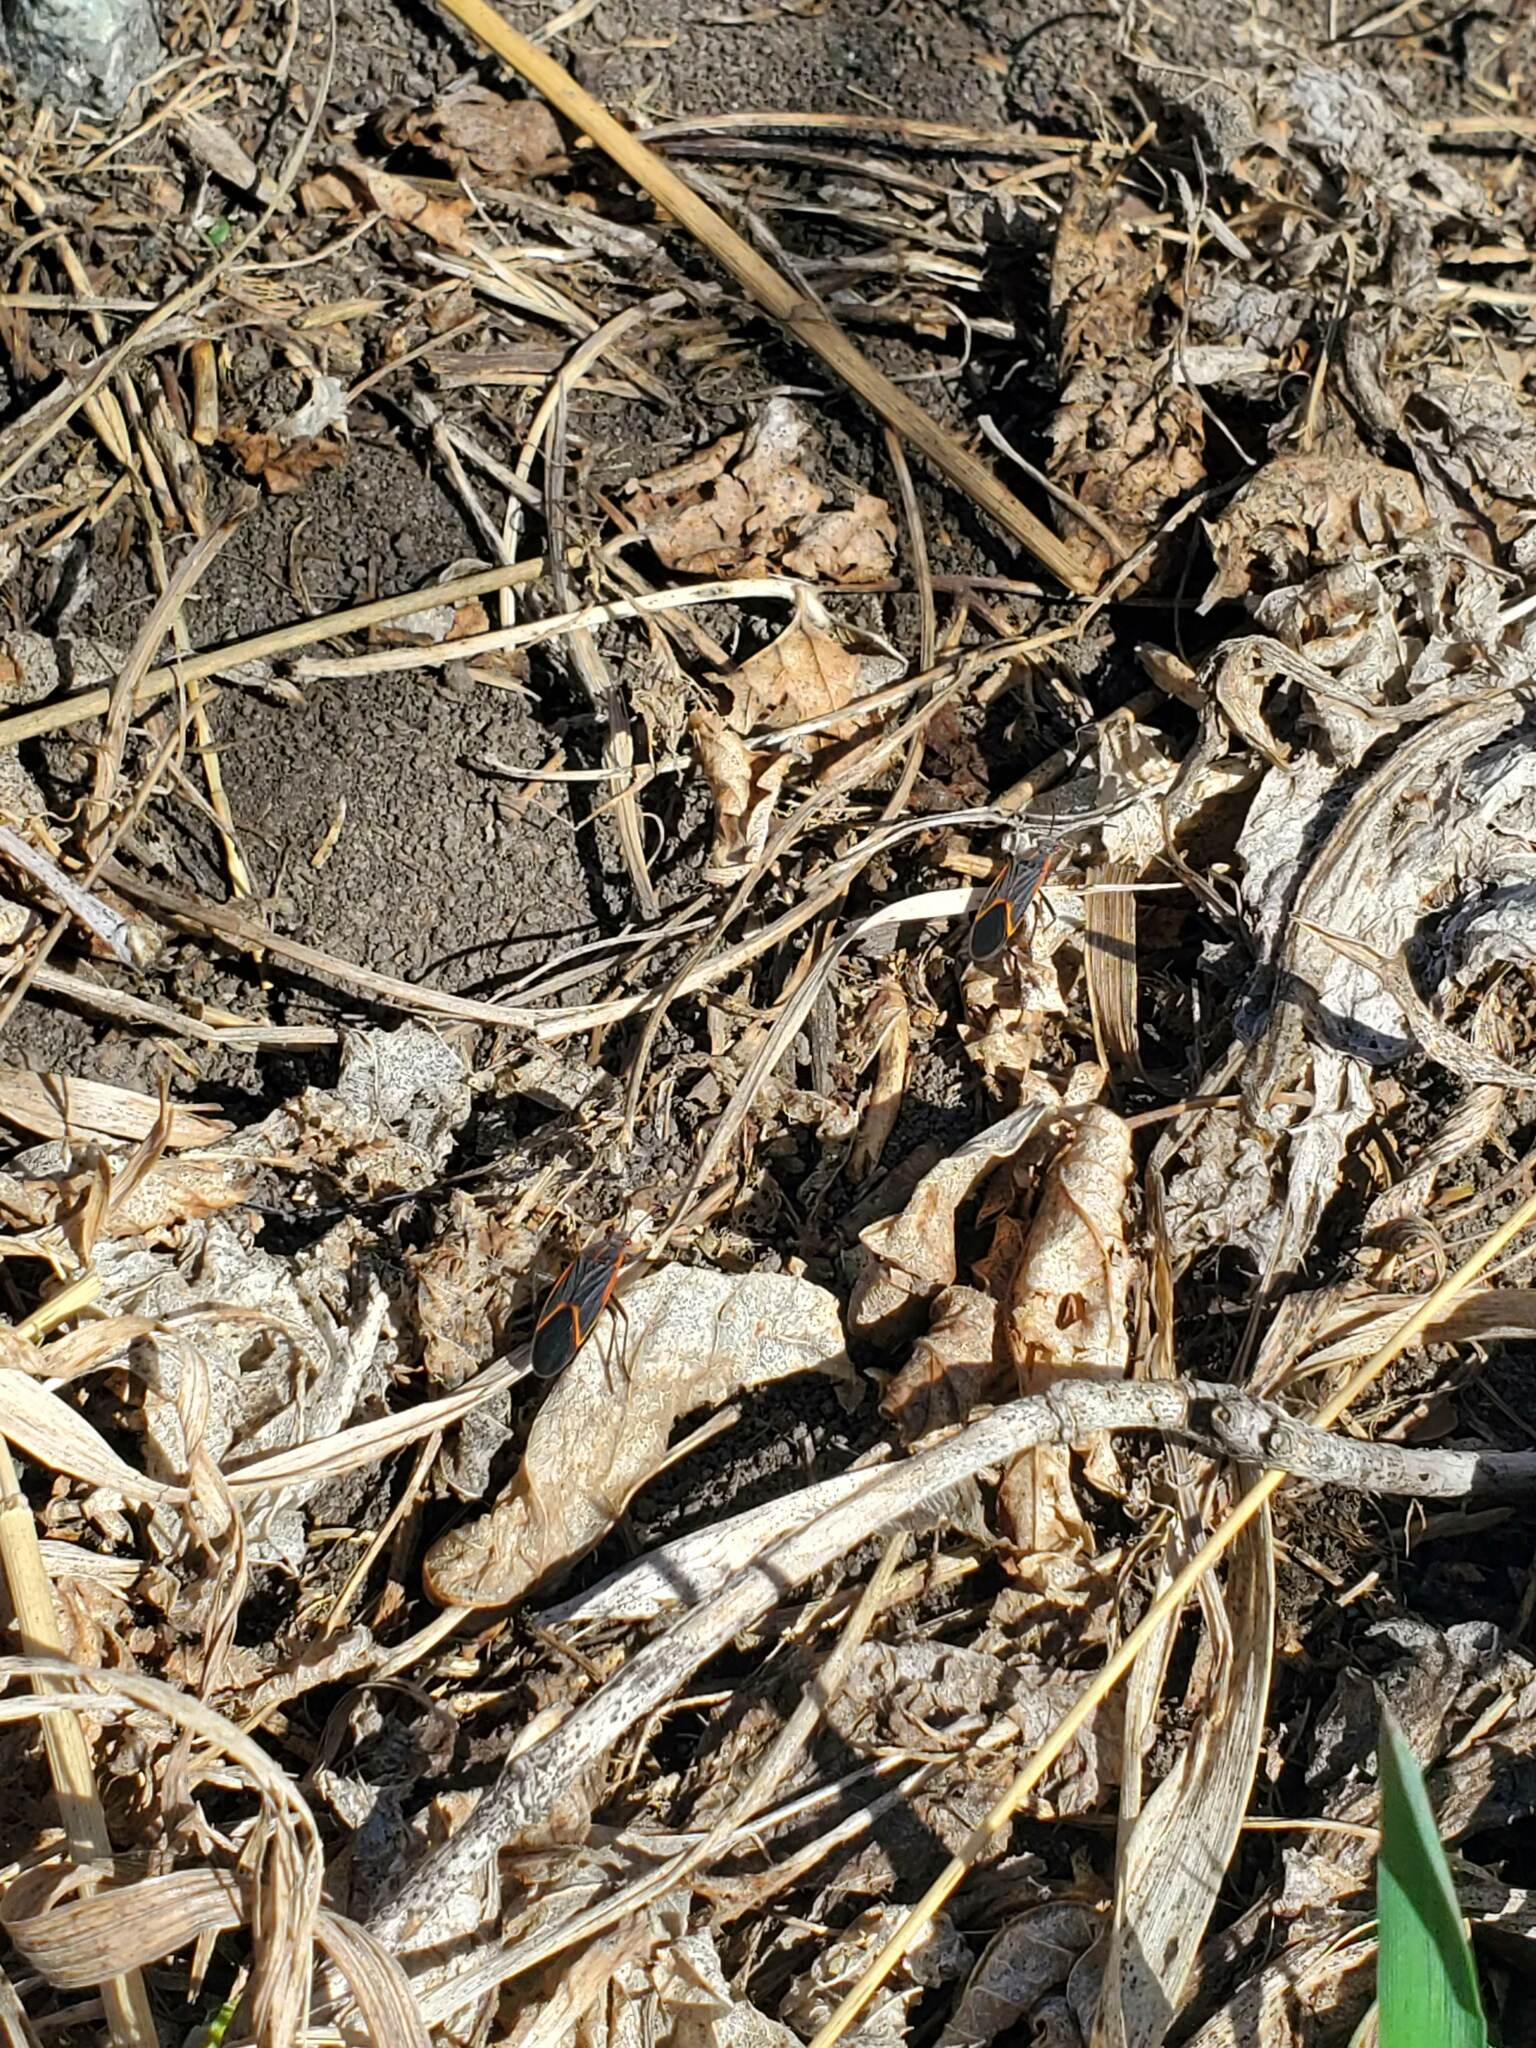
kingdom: Animalia
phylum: Arthropoda
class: Insecta
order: Hemiptera
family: Rhopalidae
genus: Boisea
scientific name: Boisea trivittata
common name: Boxelder bug
